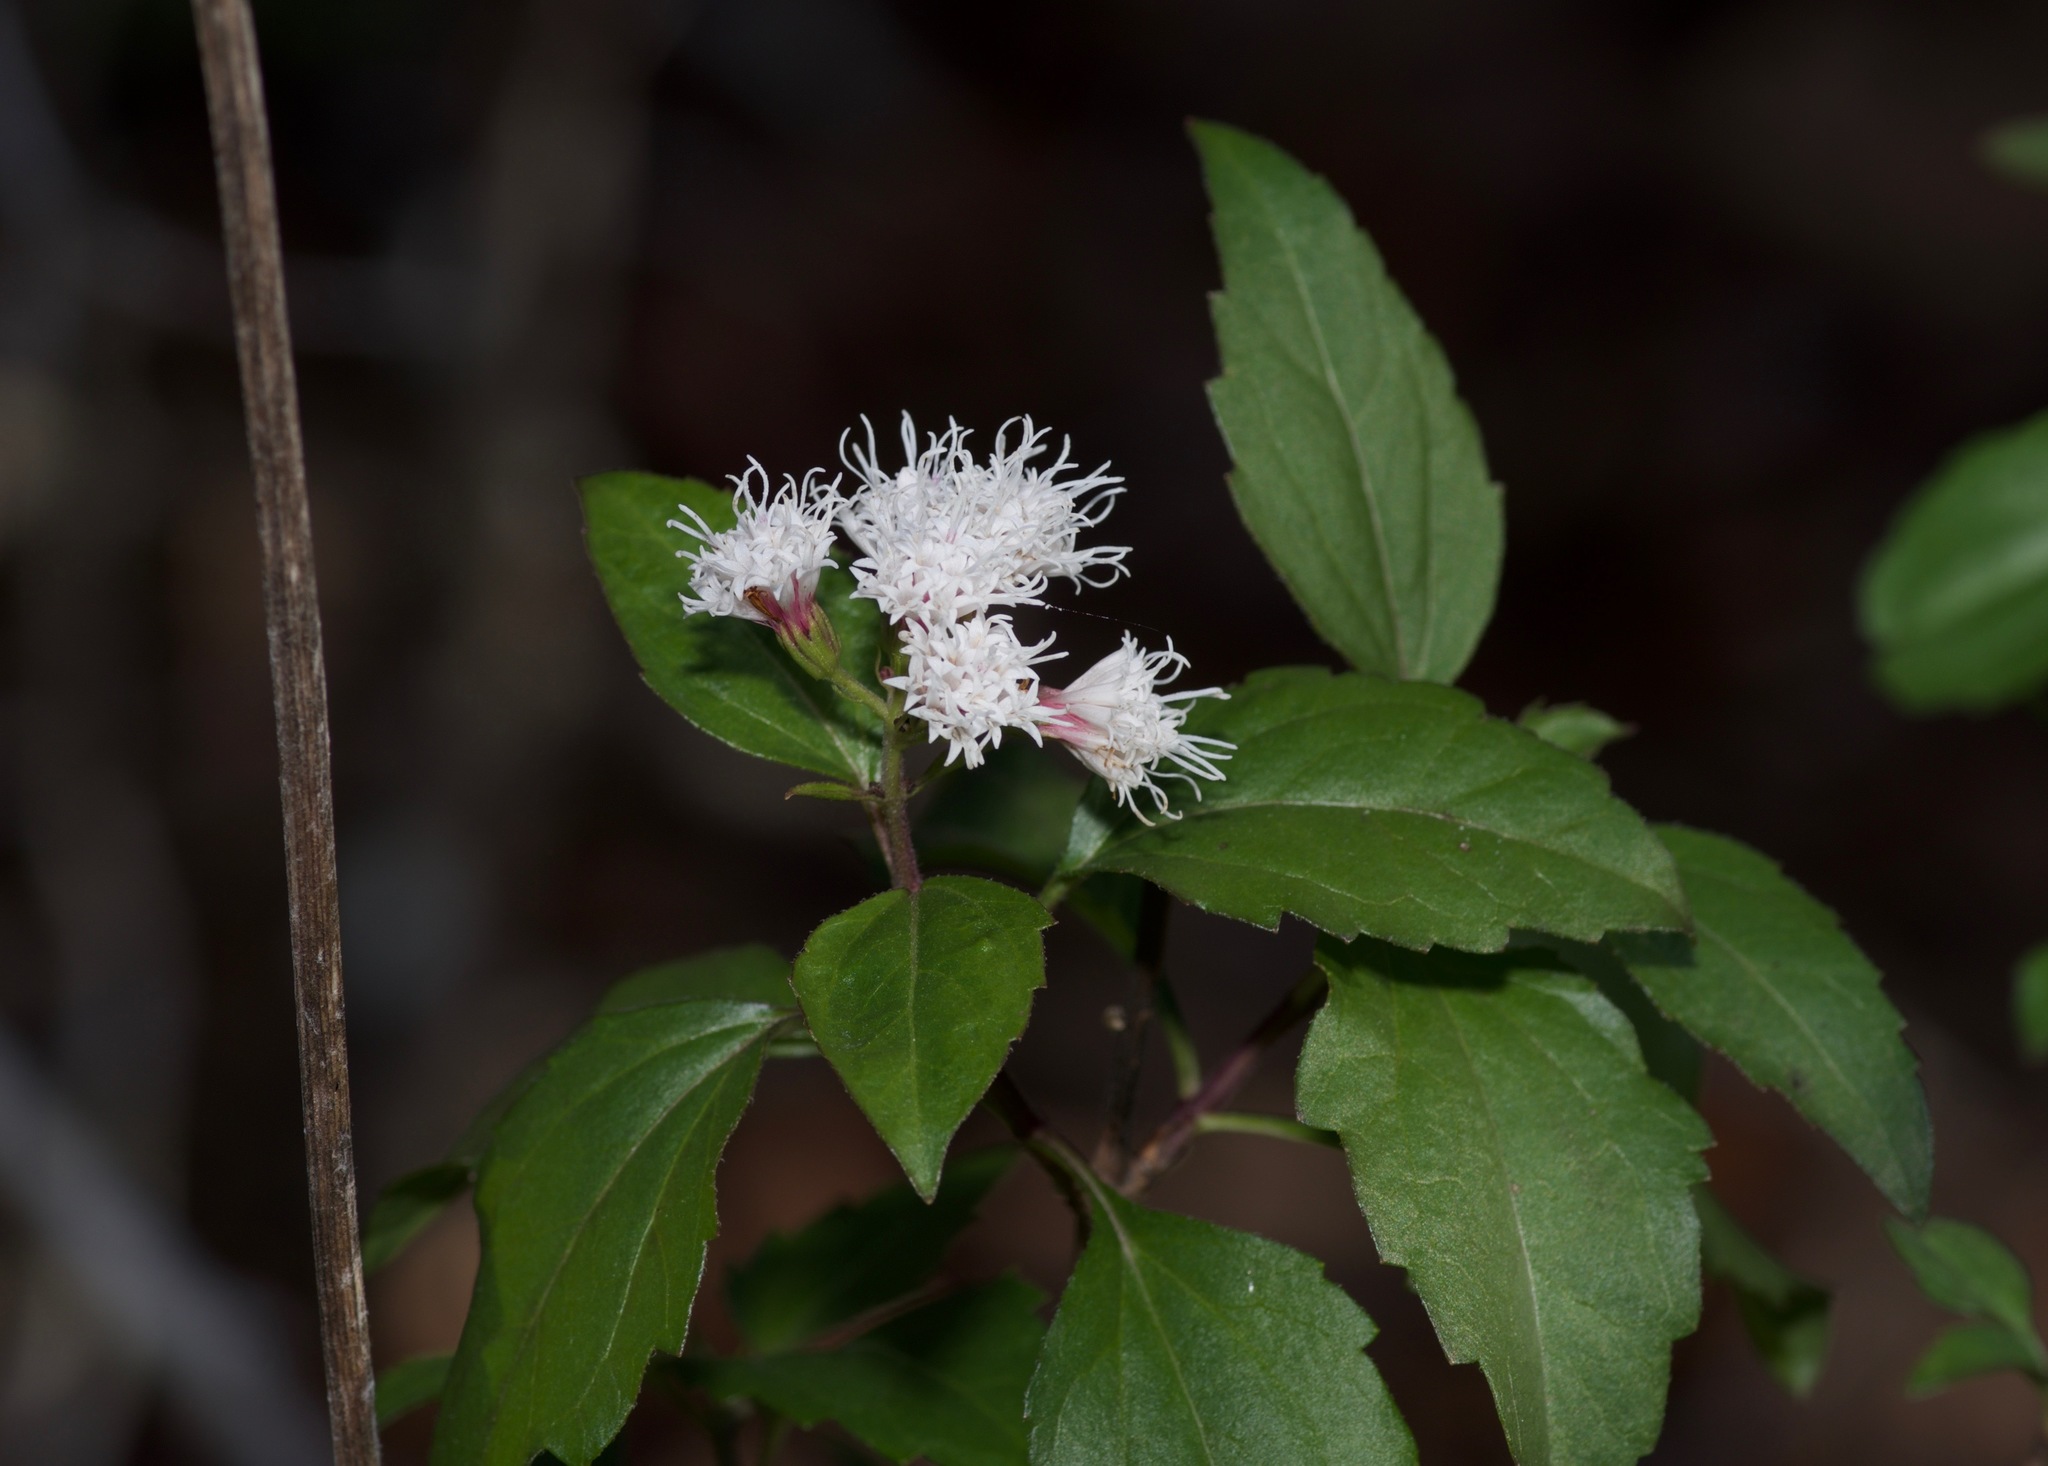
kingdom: Plantae
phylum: Tracheophyta
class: Magnoliopsida
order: Asterales
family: Asteraceae
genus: Ageratina
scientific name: Ageratina havanensis
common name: Havana snakeroot
